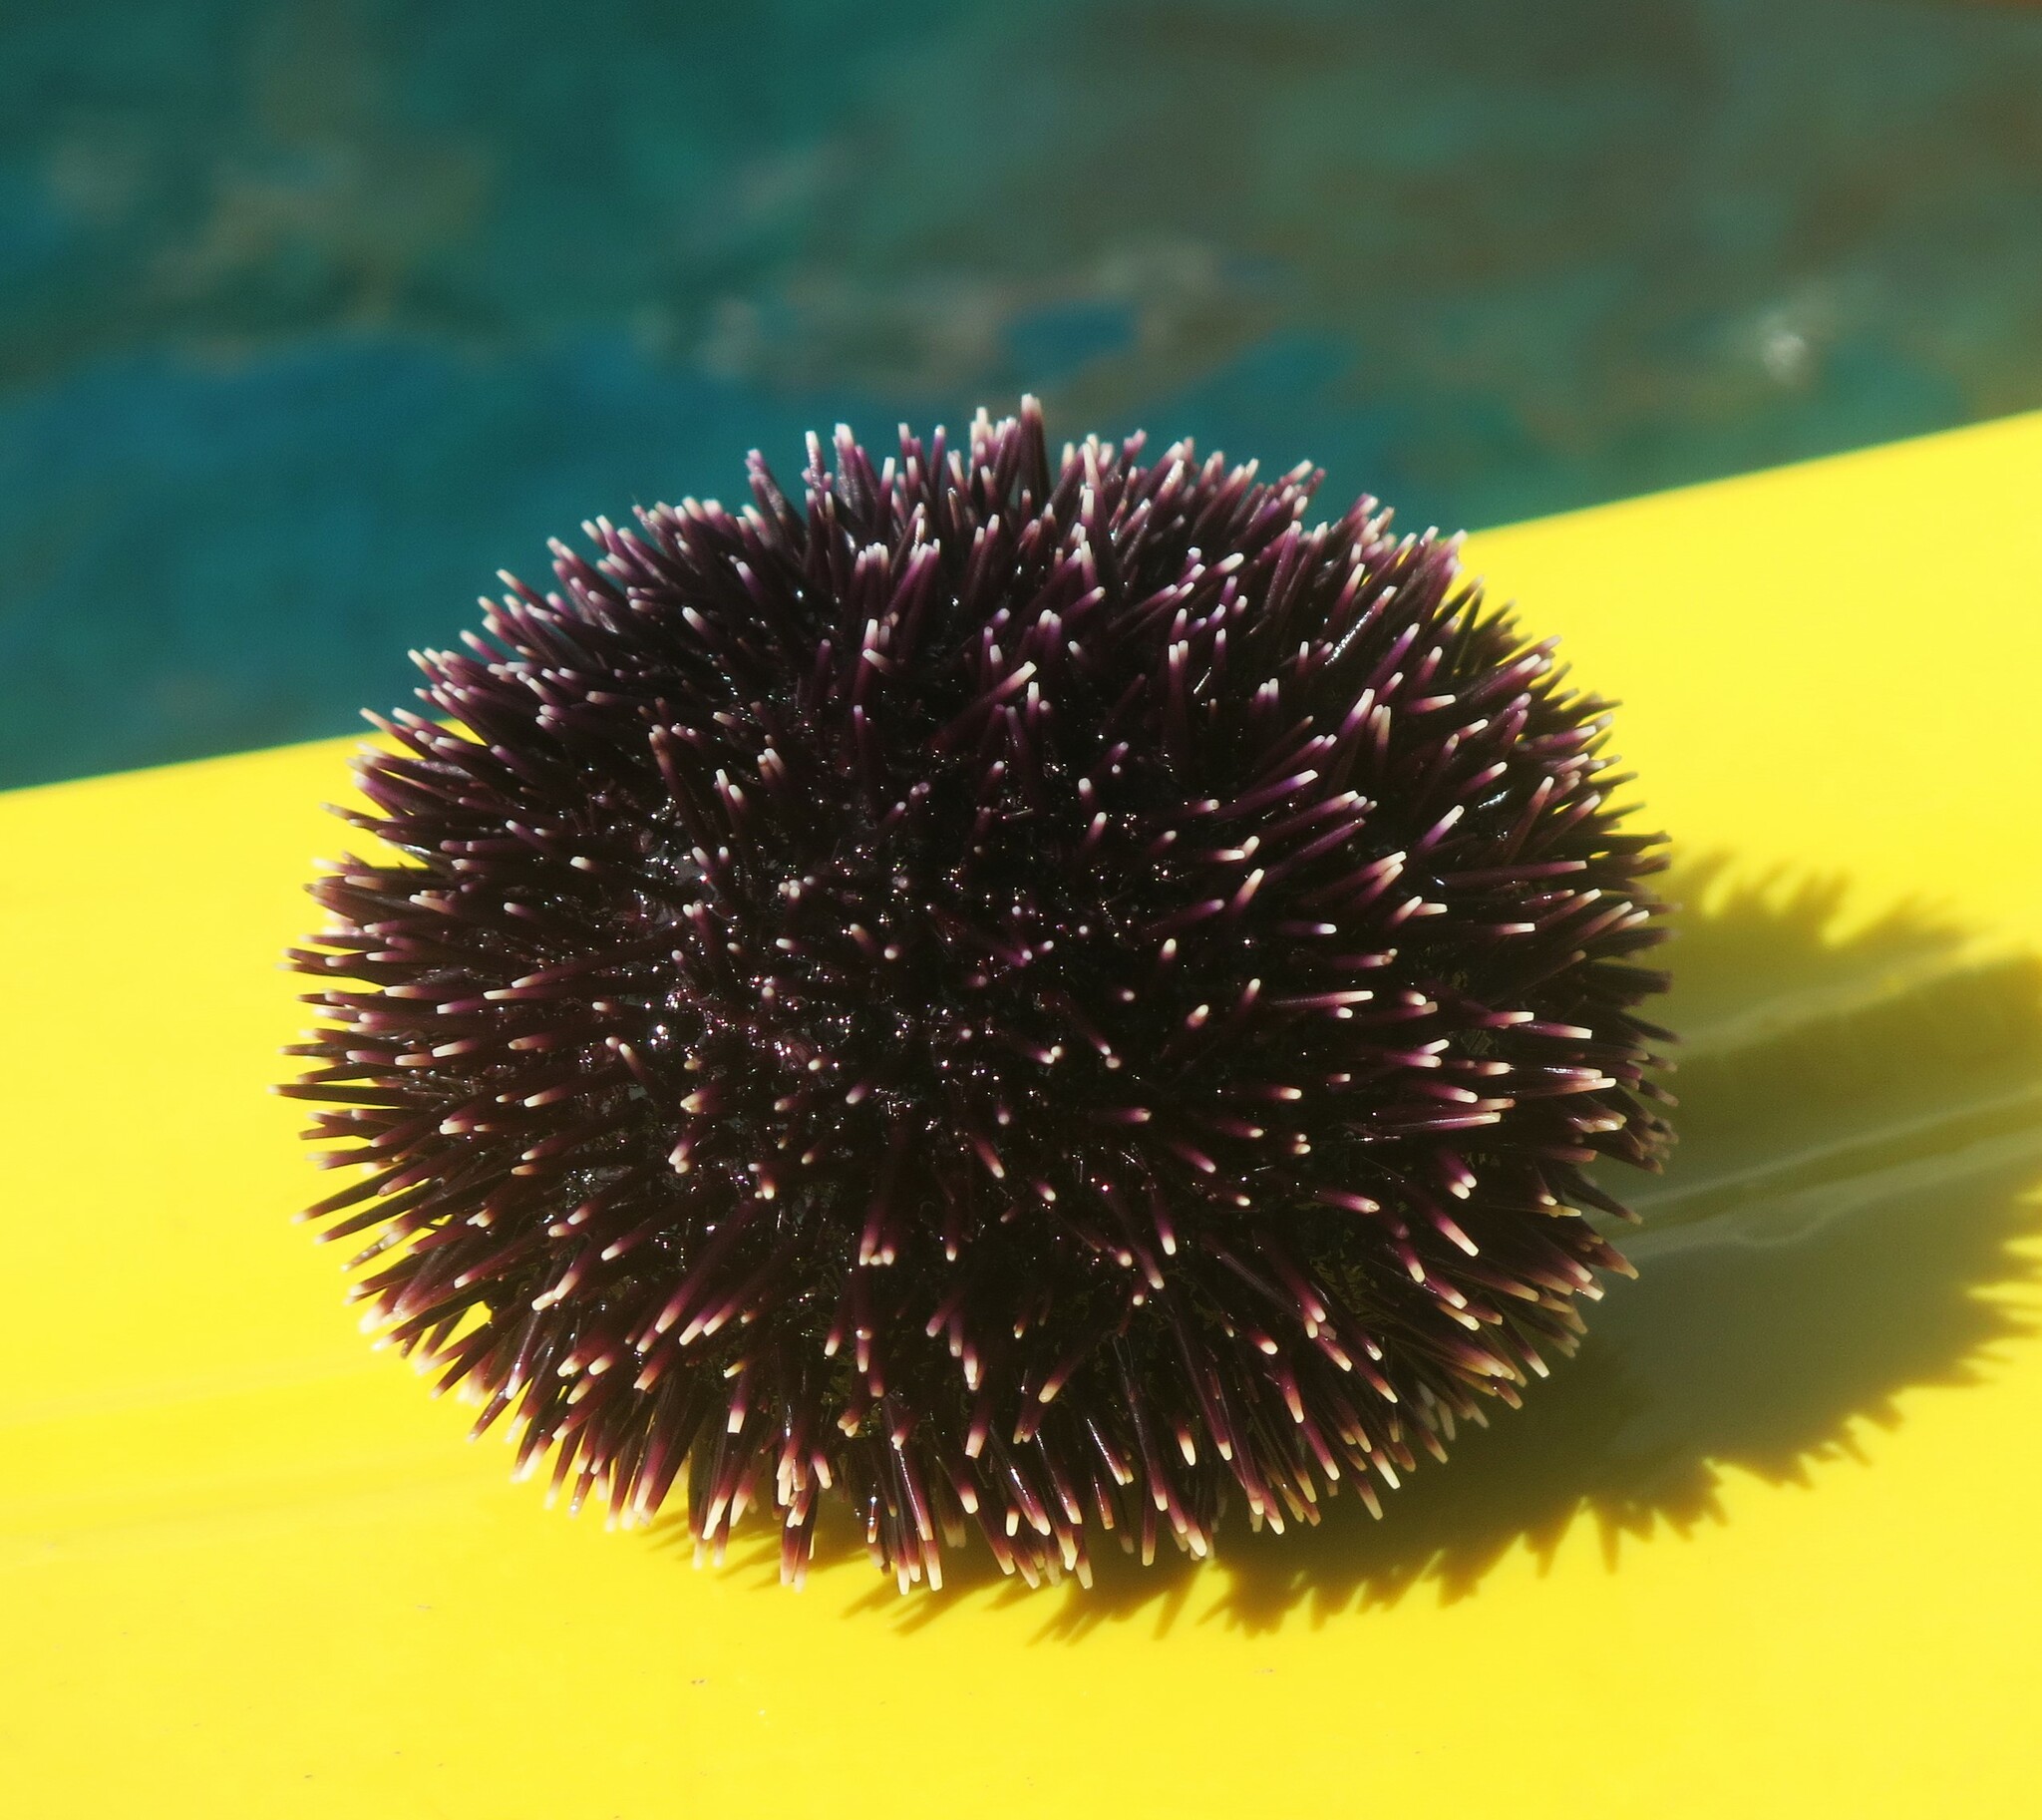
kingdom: Animalia
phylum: Echinodermata
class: Echinoidea
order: Camarodonta
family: Toxopneustidae
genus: Sphaerechinus
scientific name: Sphaerechinus granularis
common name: Violet sea urchin
